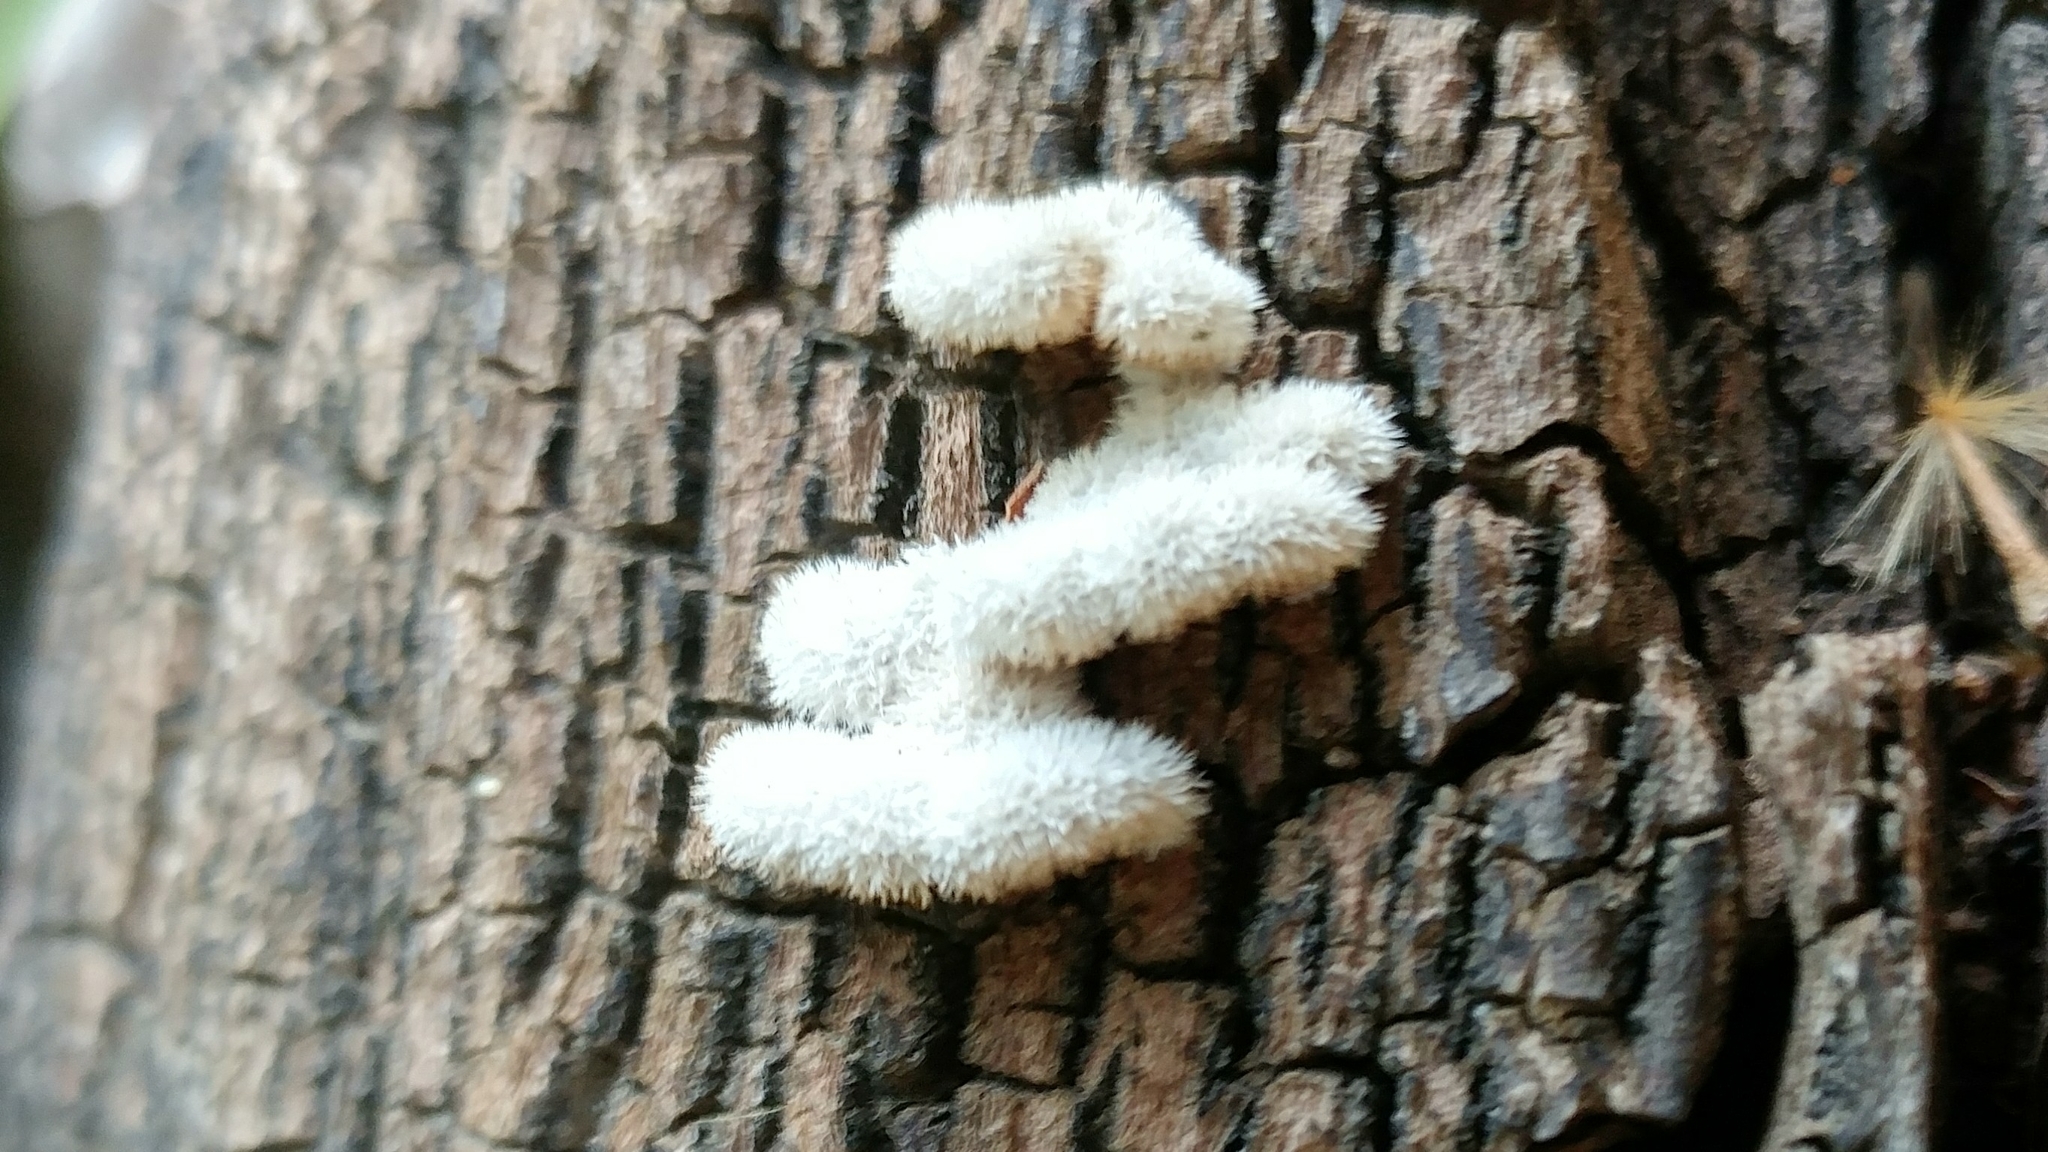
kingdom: Fungi
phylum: Basidiomycota
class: Agaricomycetes
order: Agaricales
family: Schizophyllaceae
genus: Schizophyllum
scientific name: Schizophyllum commune
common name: Common porecrust
